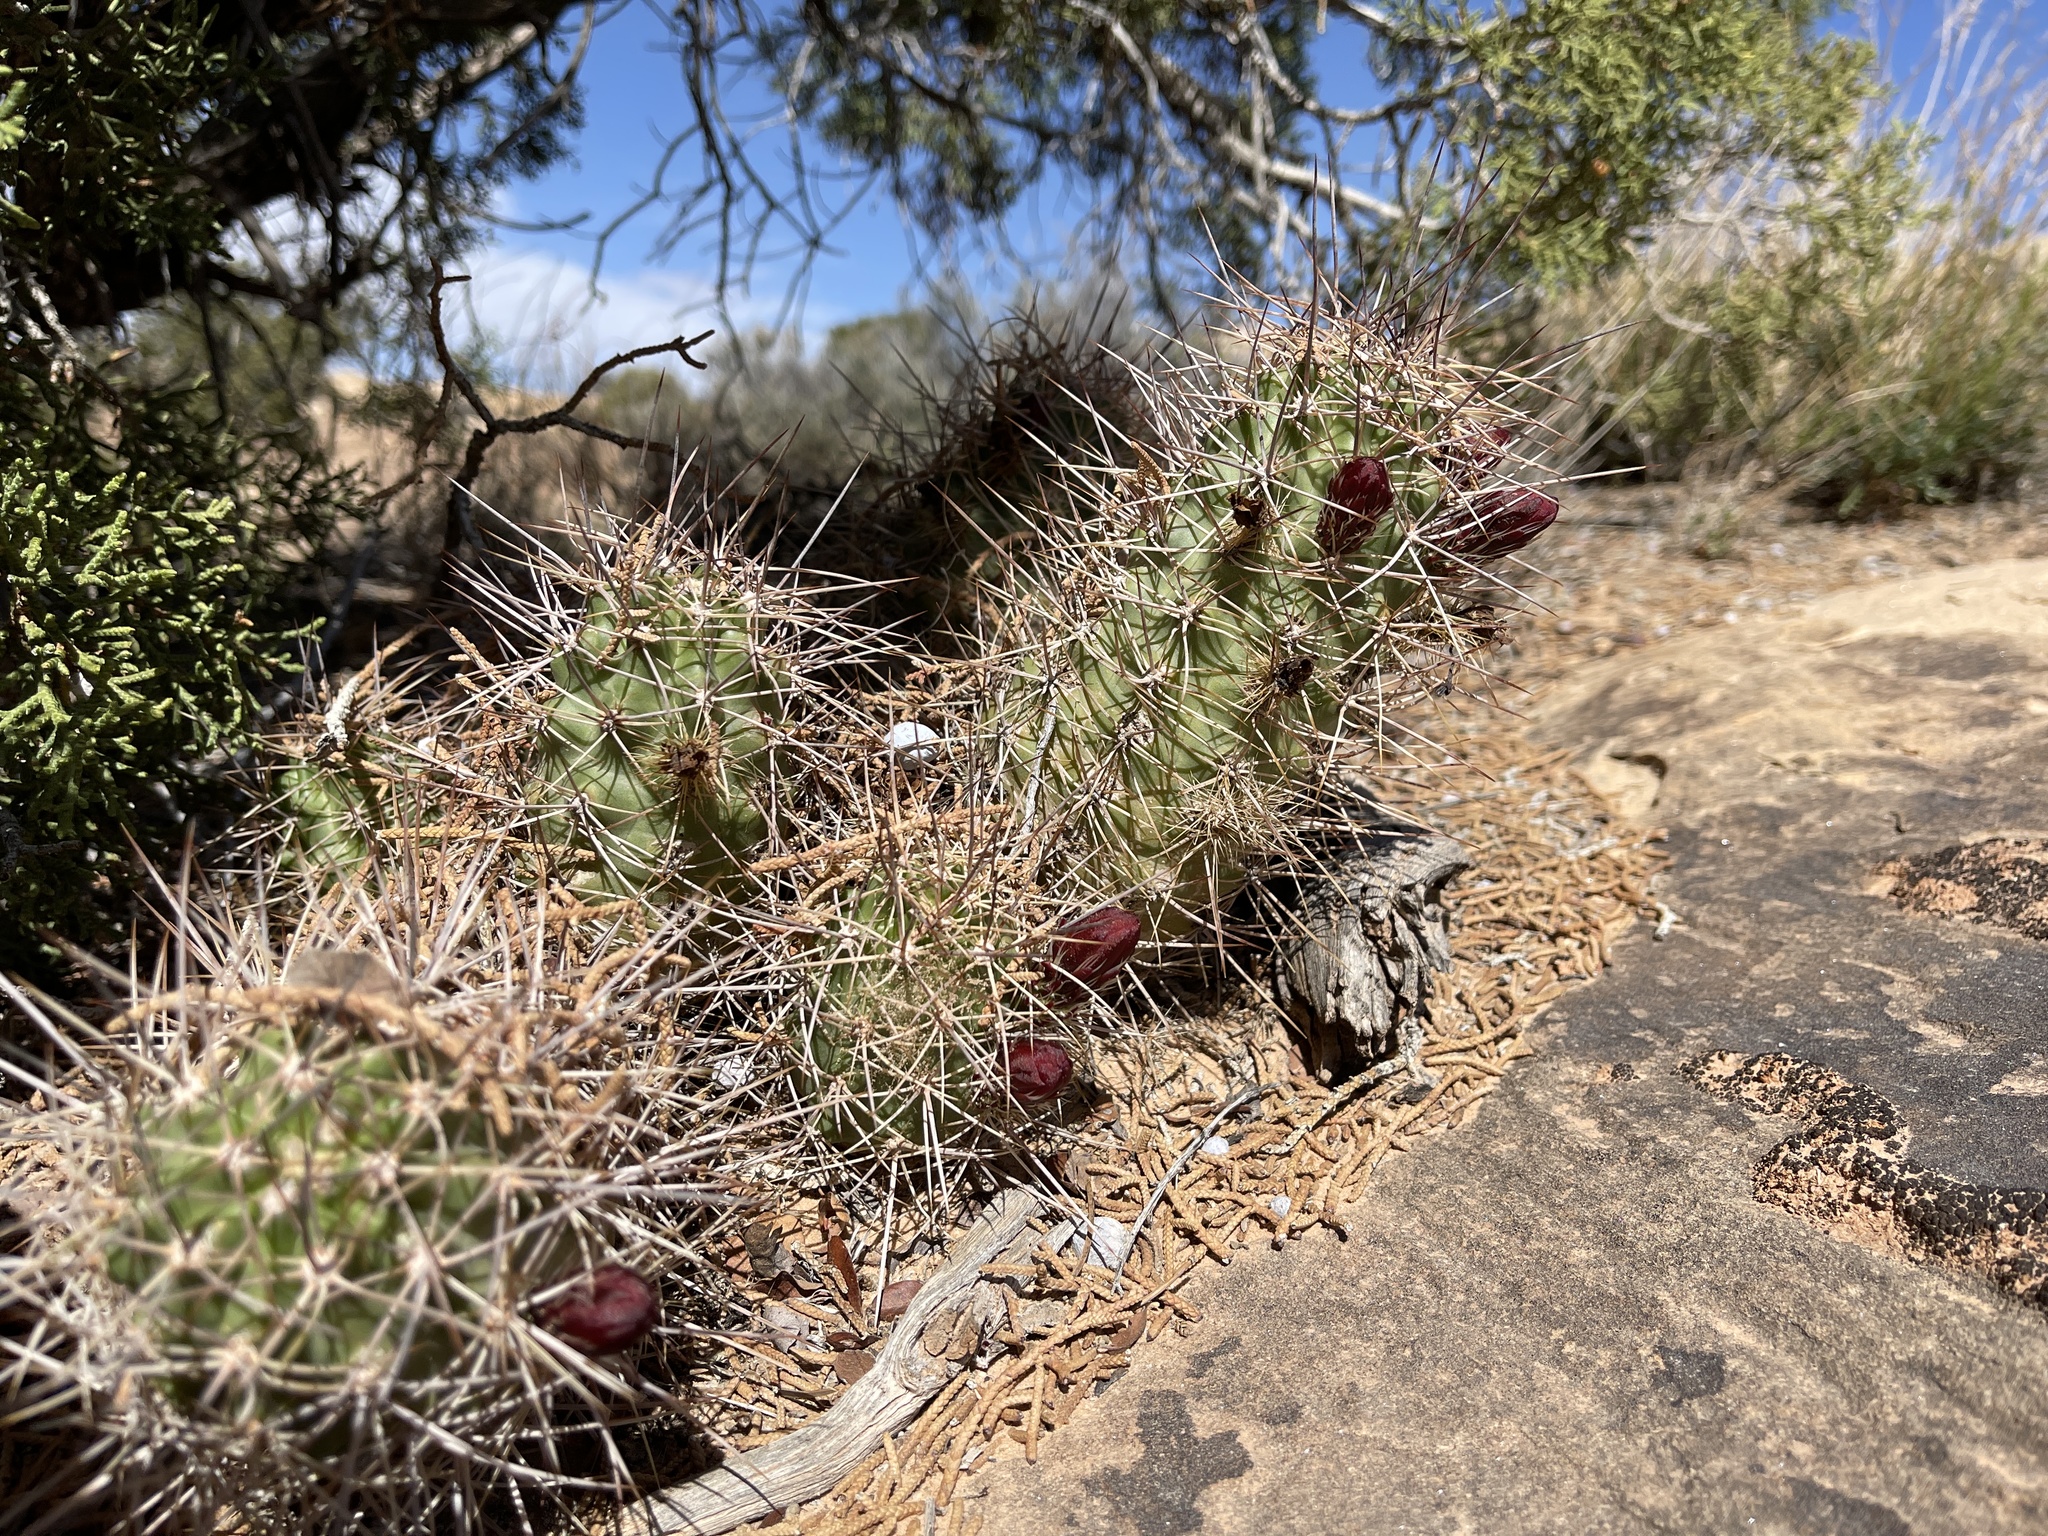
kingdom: Plantae
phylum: Tracheophyta
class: Magnoliopsida
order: Caryophyllales
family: Cactaceae
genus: Echinocereus
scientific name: Echinocereus triglochidiatus
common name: Claretcup hedgehog
